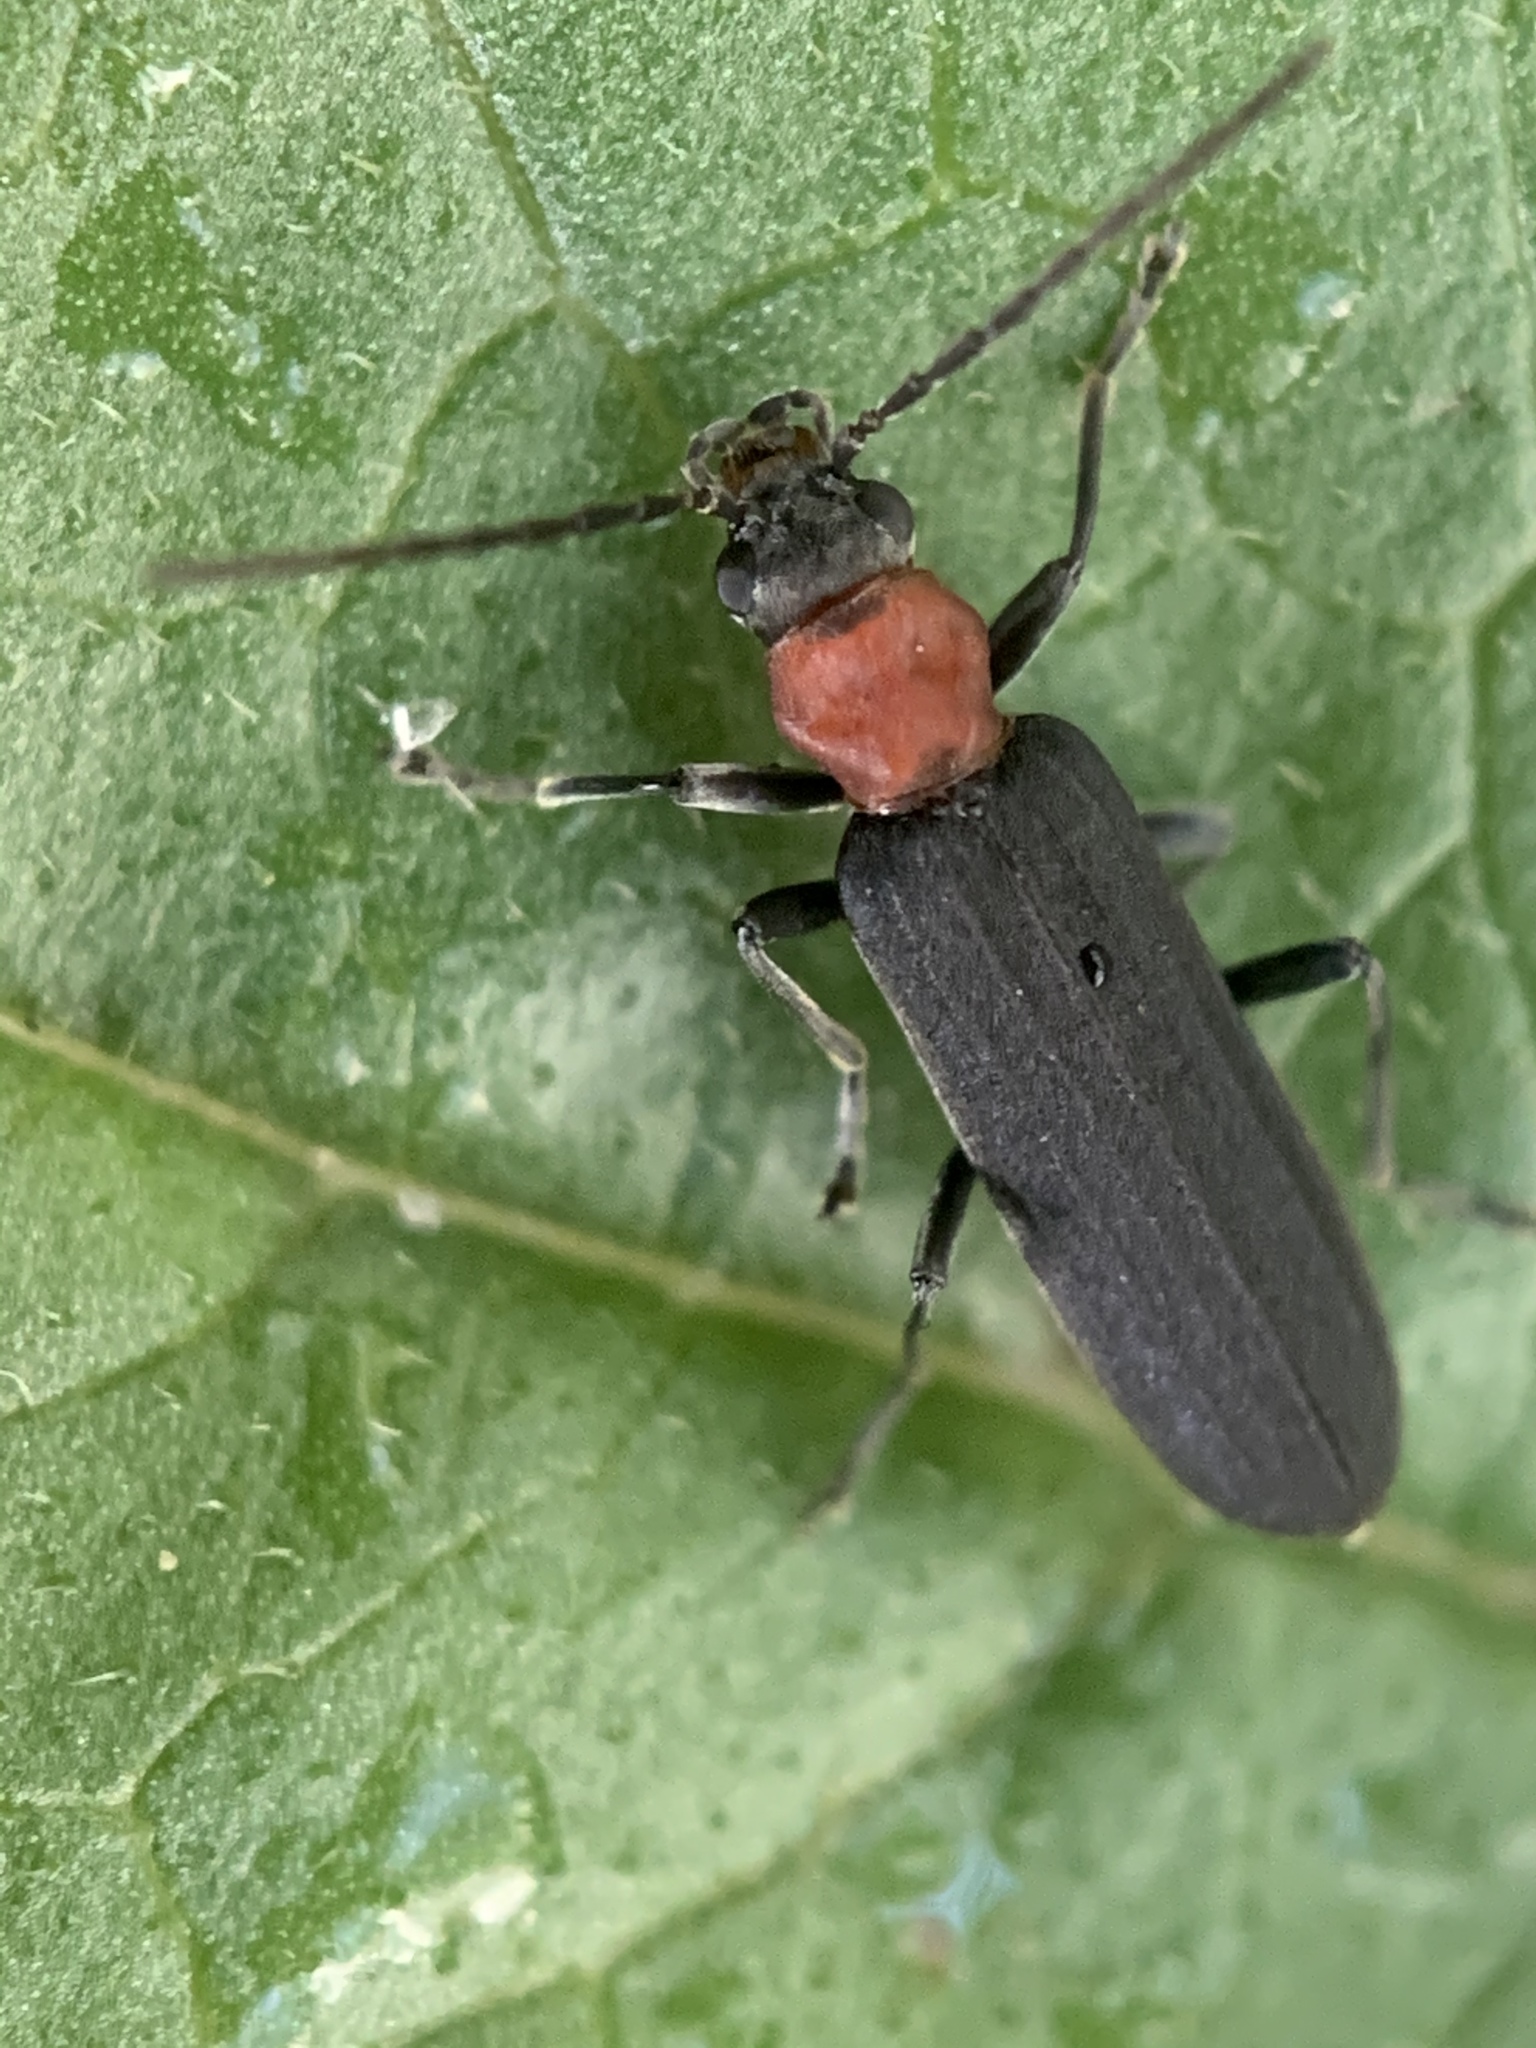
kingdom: Animalia
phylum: Arthropoda
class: Insecta
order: Coleoptera
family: Oedemeridae
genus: Ischnomera
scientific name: Ischnomera
